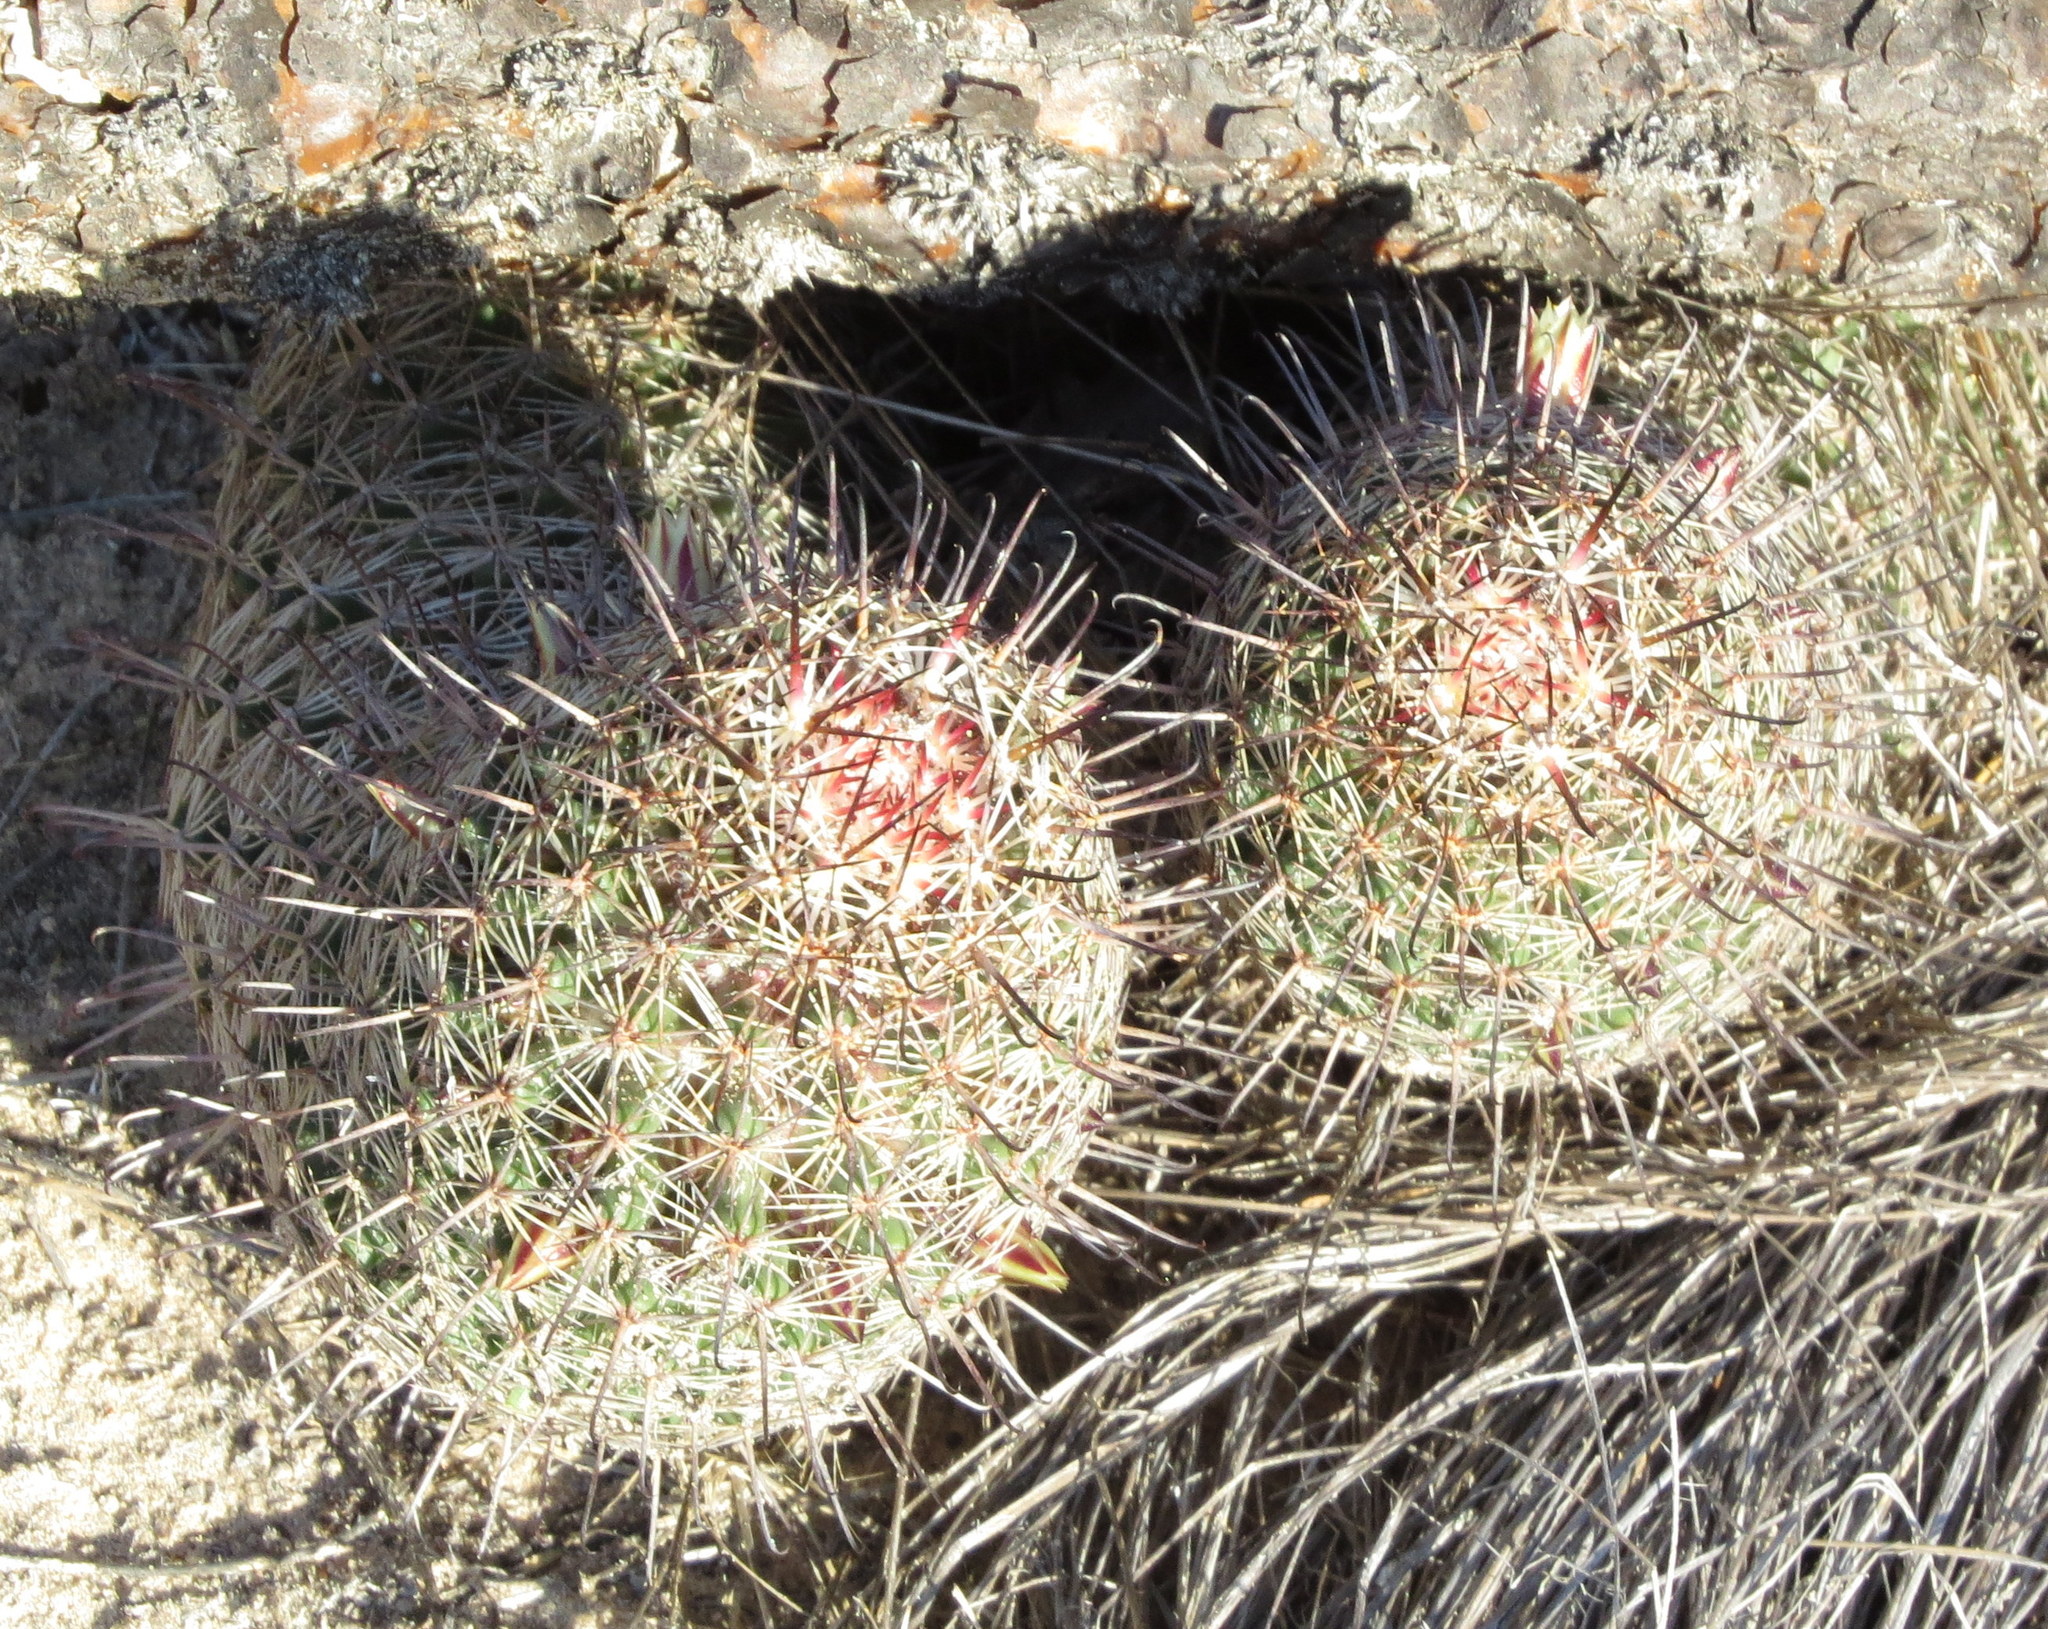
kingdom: Plantae
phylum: Tracheophyta
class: Magnoliopsida
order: Caryophyllales
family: Cactaceae
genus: Cochemiea
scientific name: Cochemiea dioica
